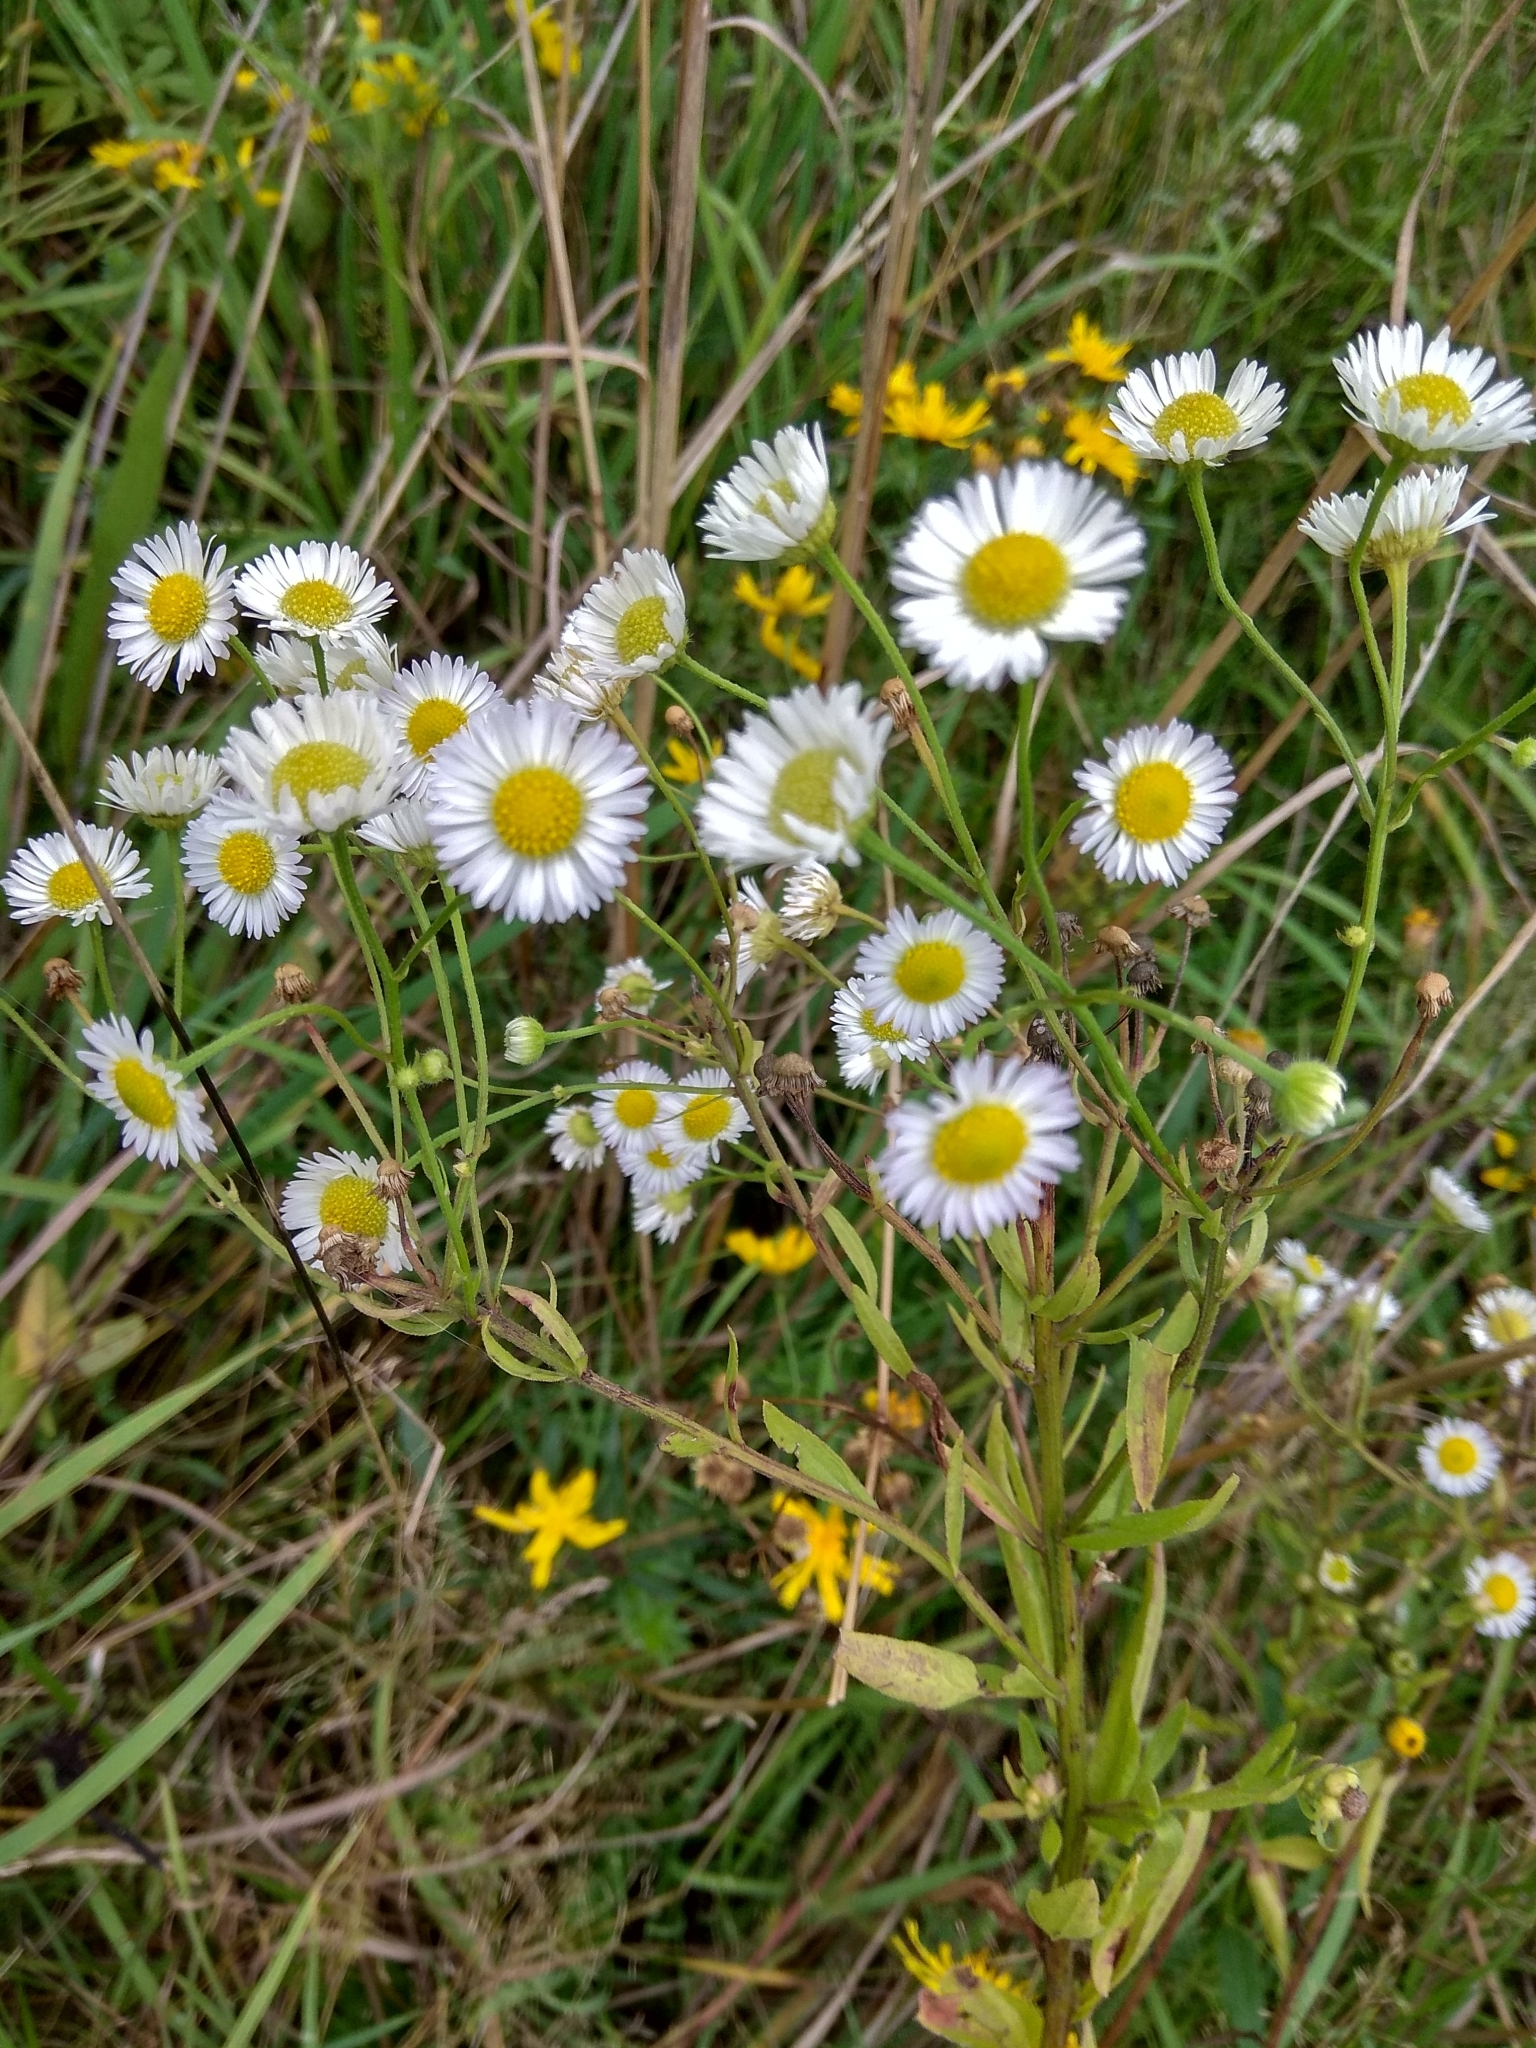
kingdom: Plantae
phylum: Tracheophyta
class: Magnoliopsida
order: Asterales
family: Asteraceae
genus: Erigeron
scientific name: Erigeron annuus
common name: Tall fleabane
